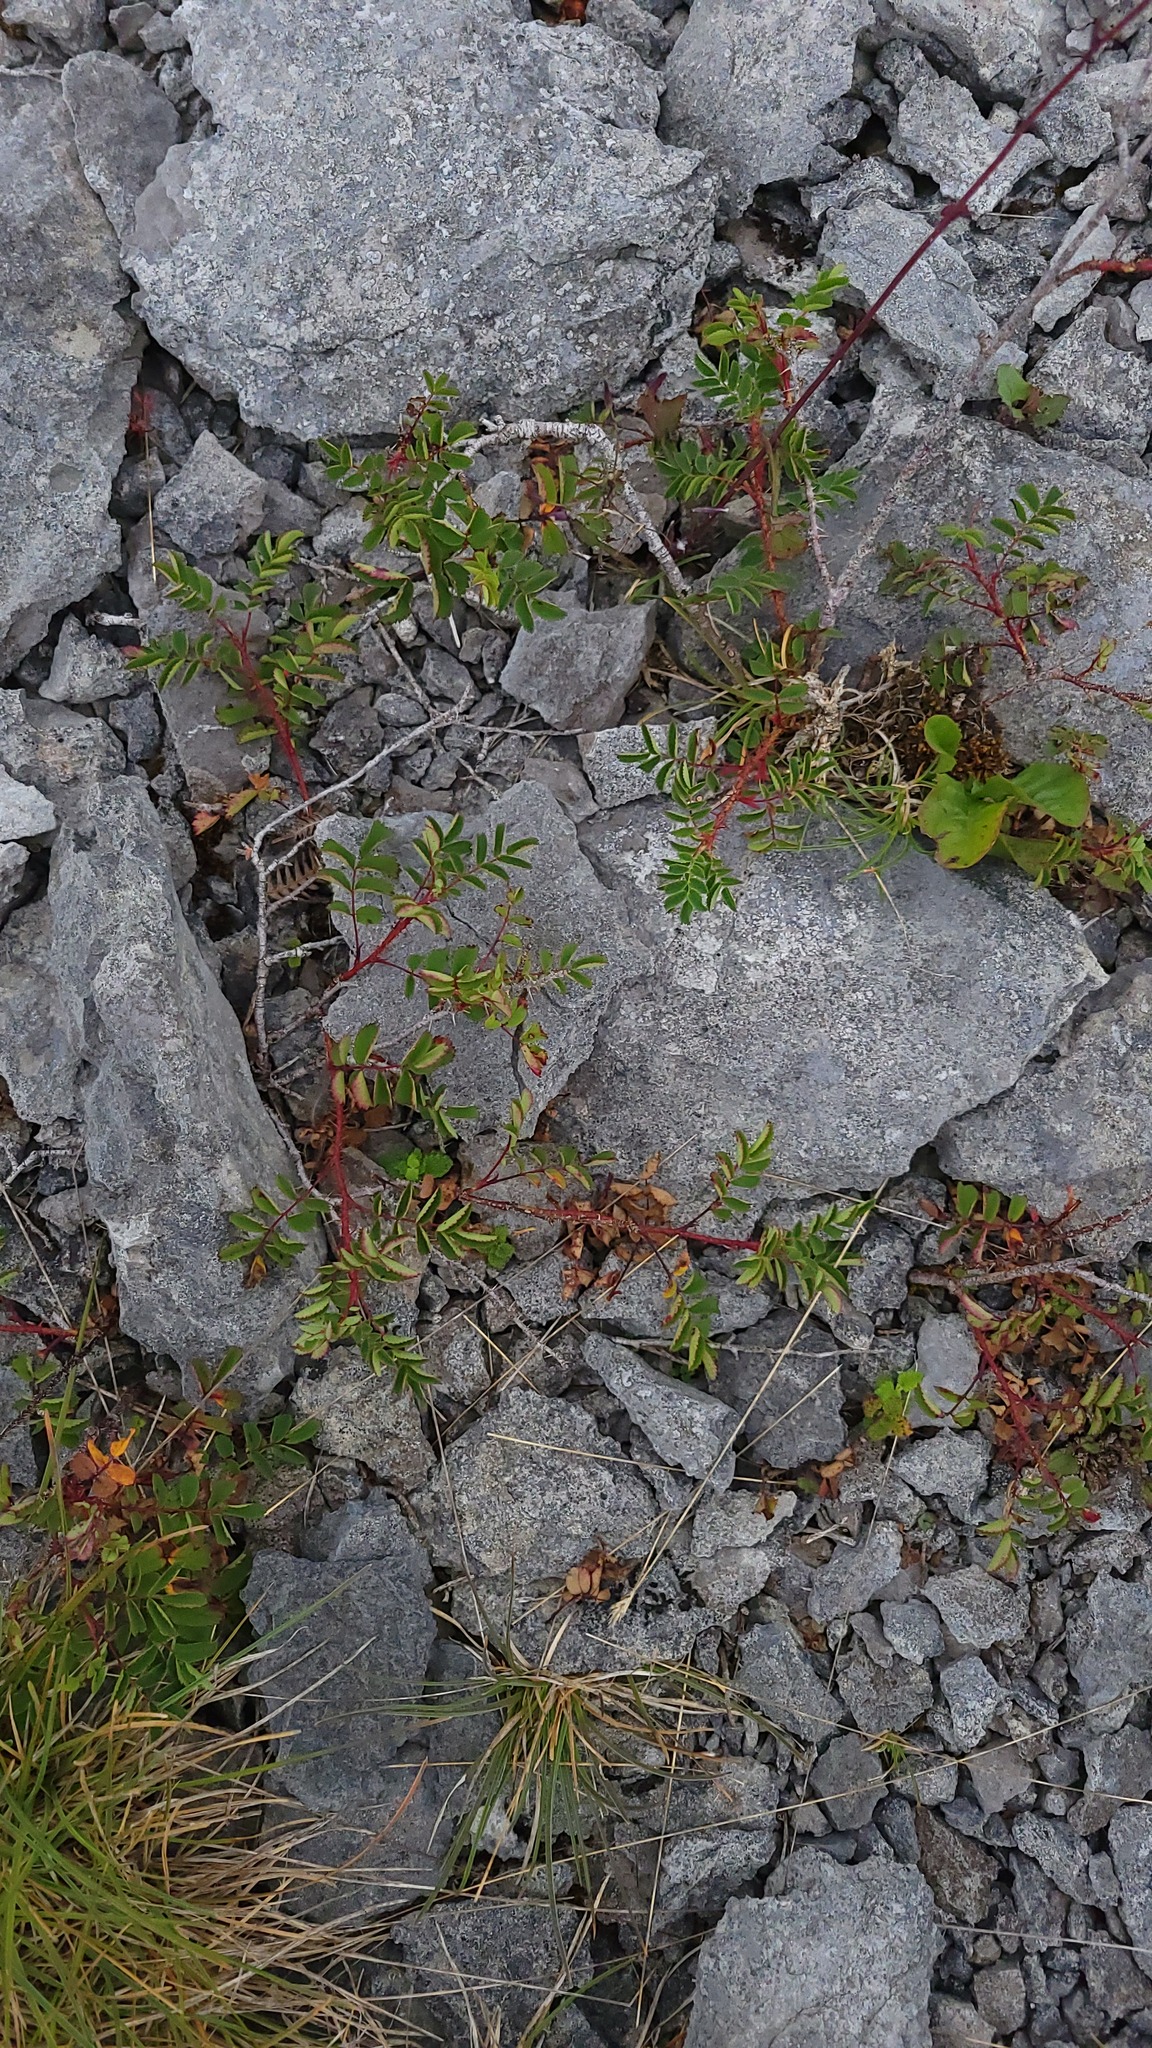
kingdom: Plantae
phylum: Tracheophyta
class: Magnoliopsida
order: Rosales
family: Rosaceae
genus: Rosa
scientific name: Rosa spinosissima
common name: Burnet rose
